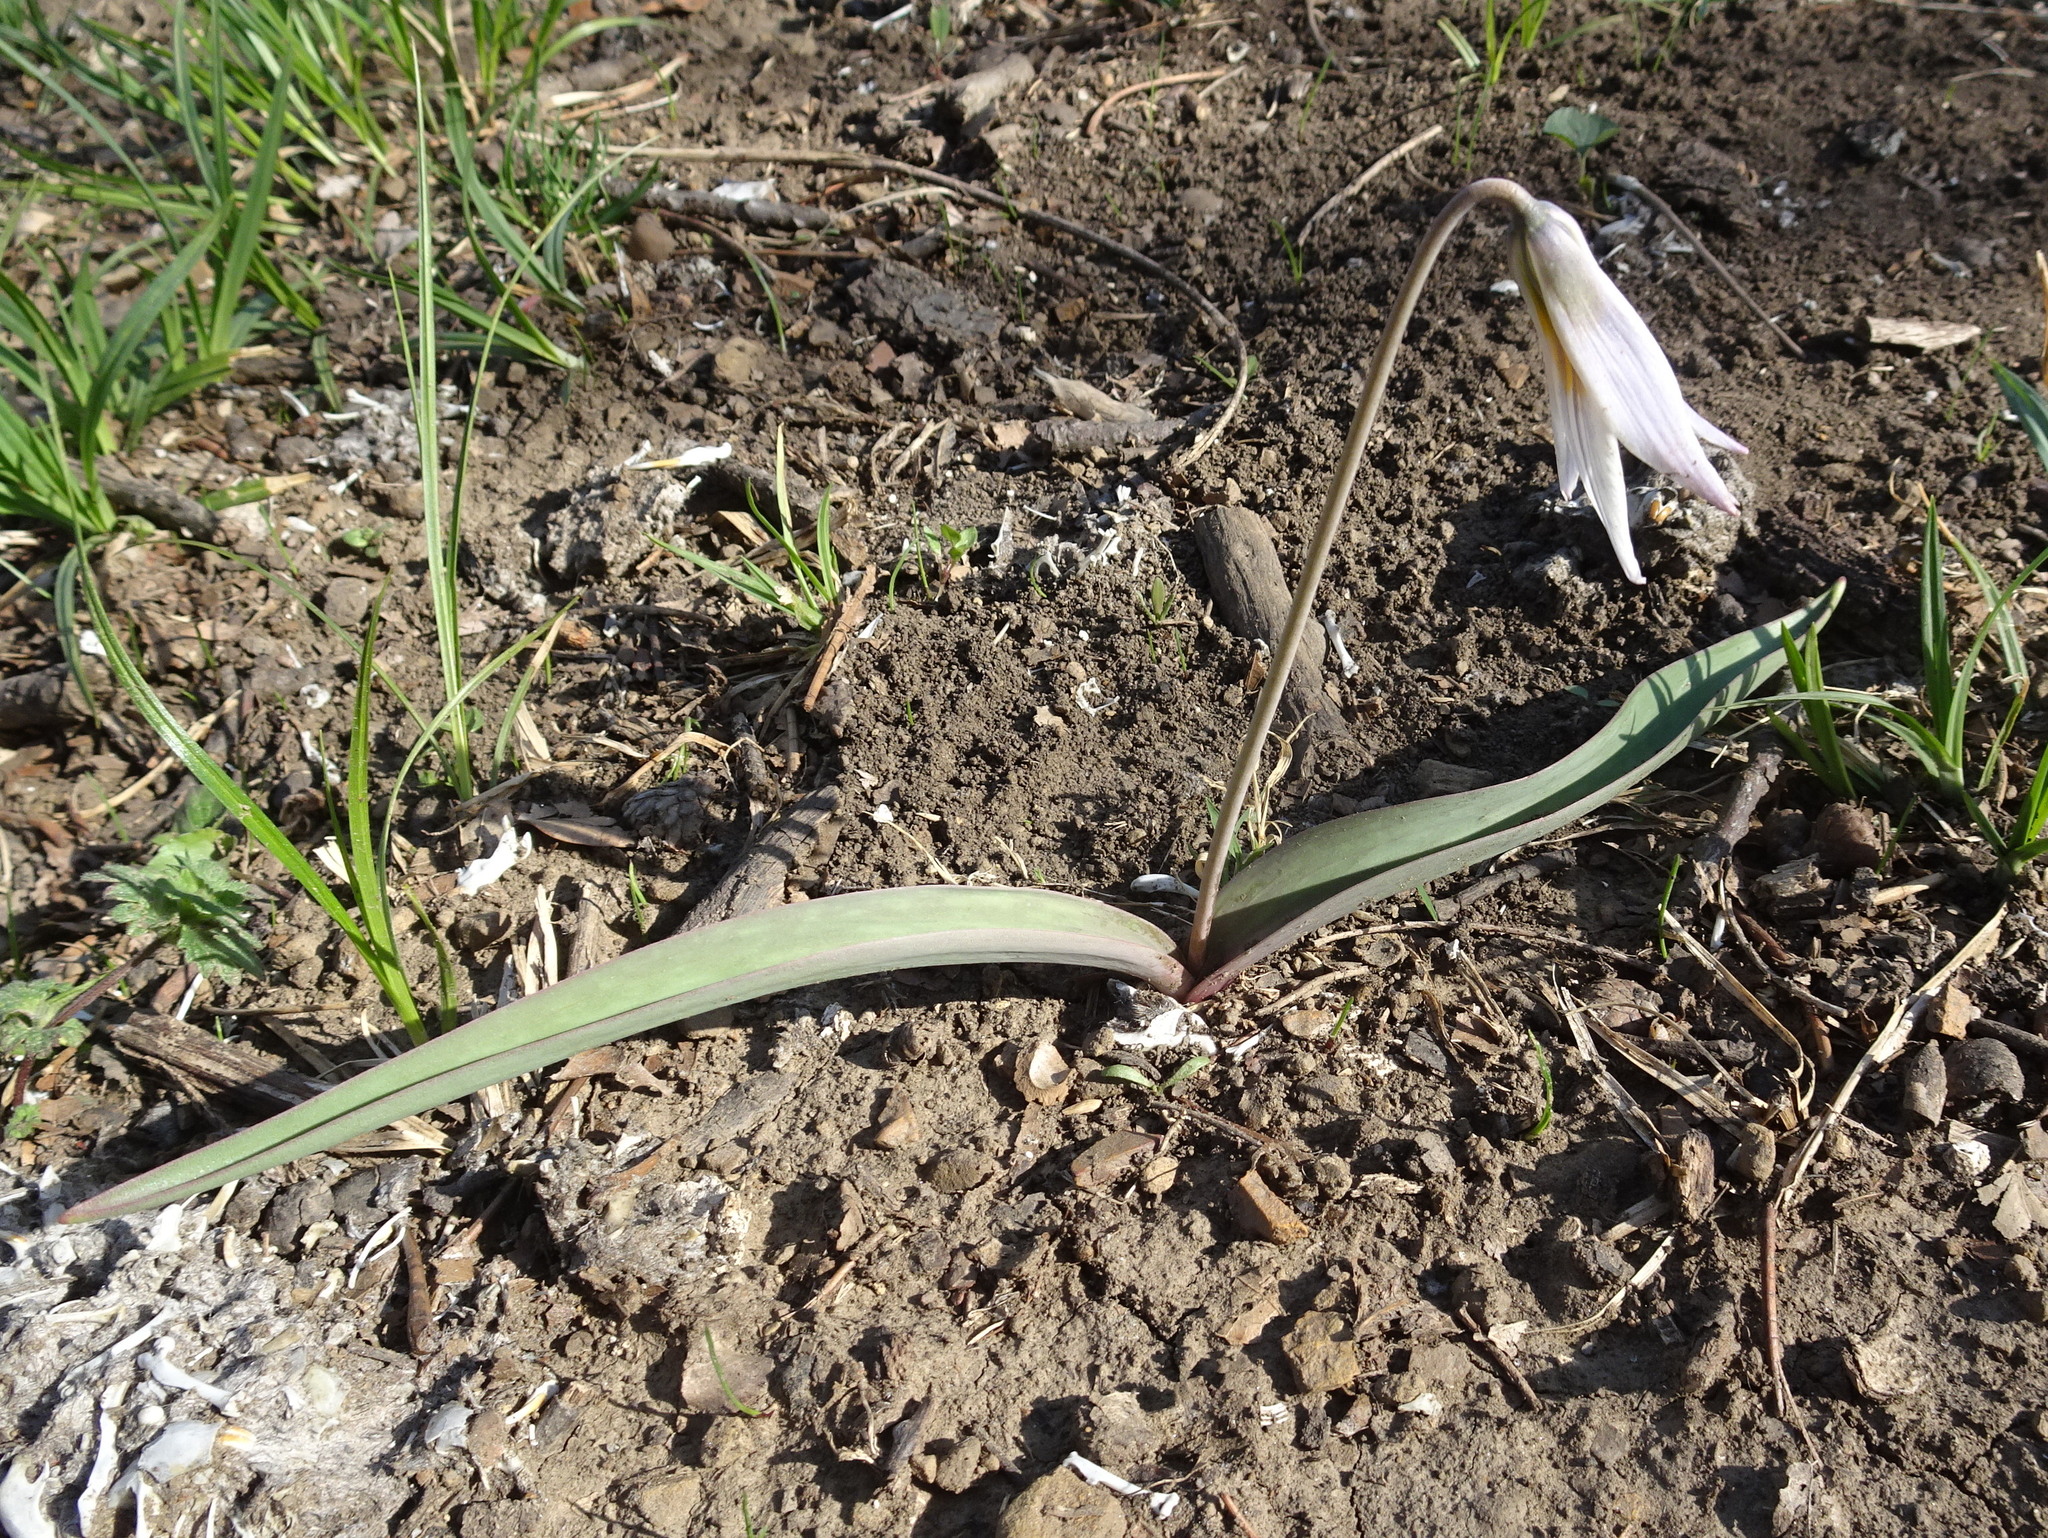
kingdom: Plantae
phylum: Tracheophyta
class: Liliopsida
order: Liliales
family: Liliaceae
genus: Erythronium
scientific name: Erythronium mesochoreum
